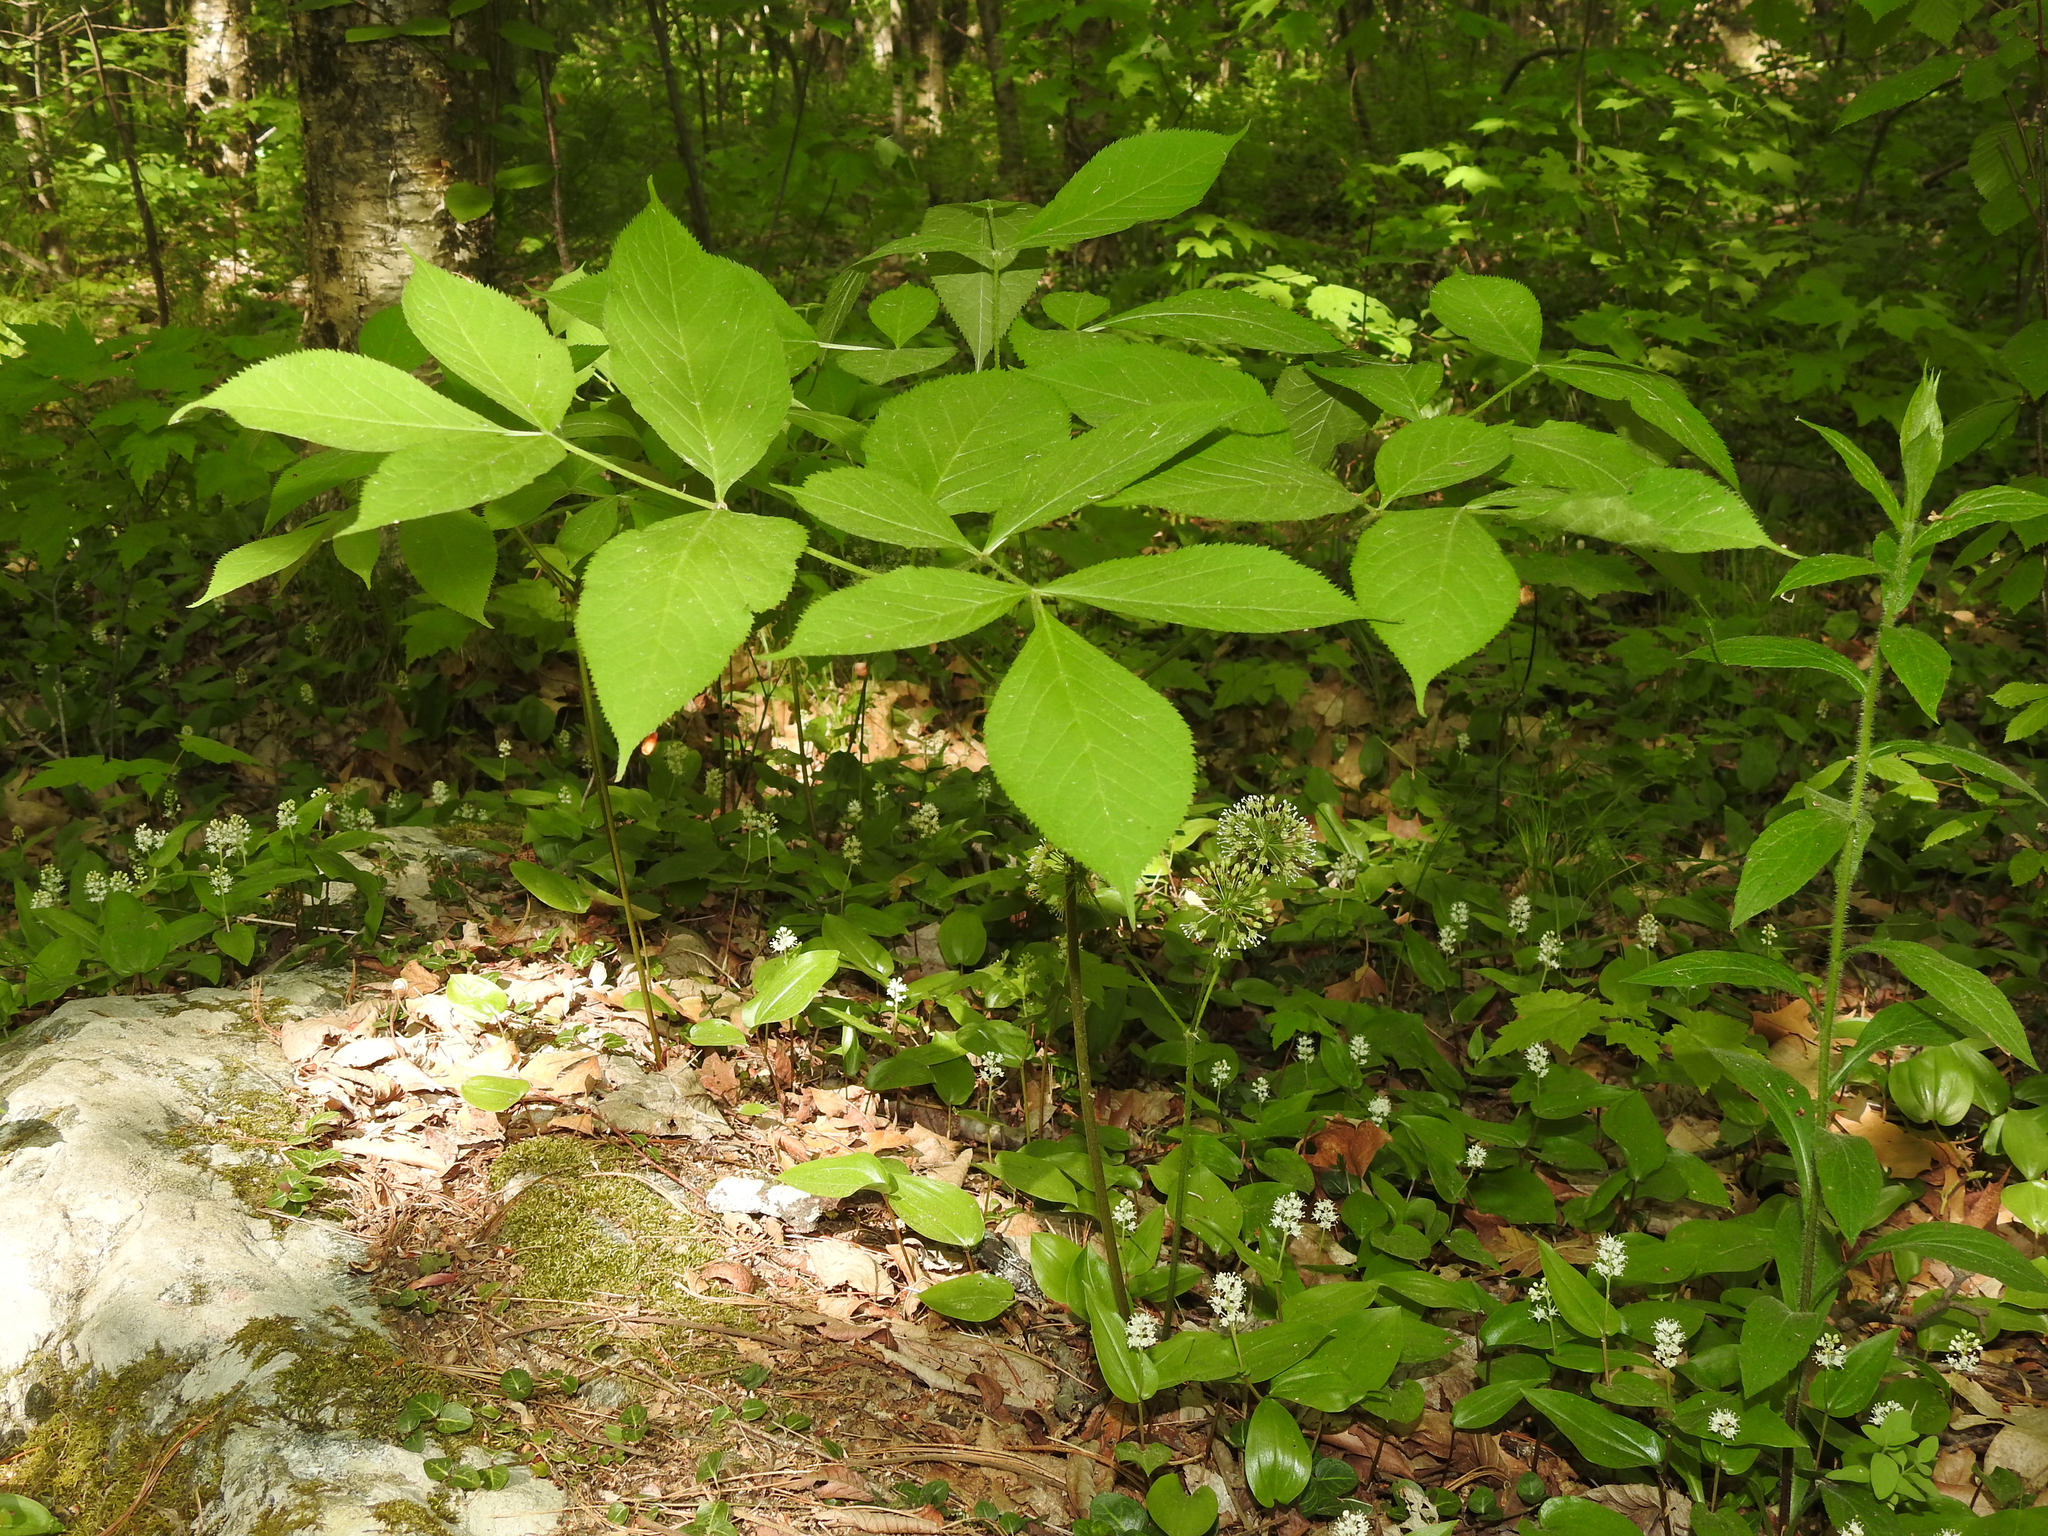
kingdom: Plantae
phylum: Tracheophyta
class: Magnoliopsida
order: Apiales
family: Araliaceae
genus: Aralia
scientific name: Aralia nudicaulis
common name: Wild sarsaparilla
